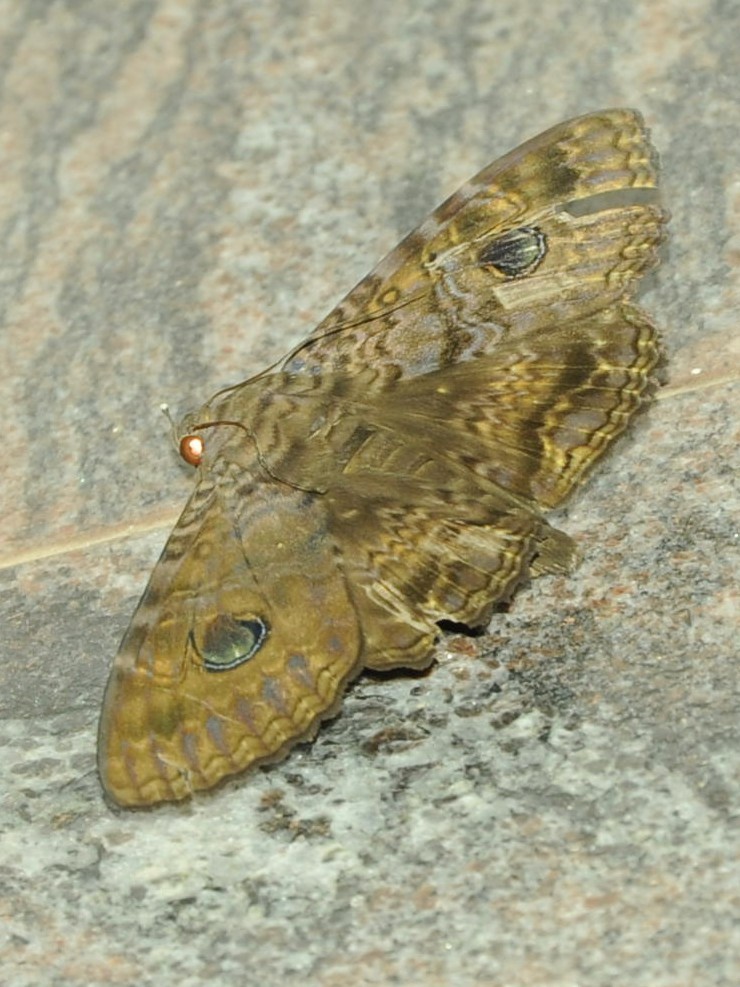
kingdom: Animalia
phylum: Arthropoda
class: Insecta
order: Lepidoptera
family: Erebidae
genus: Speiredonia
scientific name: Speiredonia obscura
